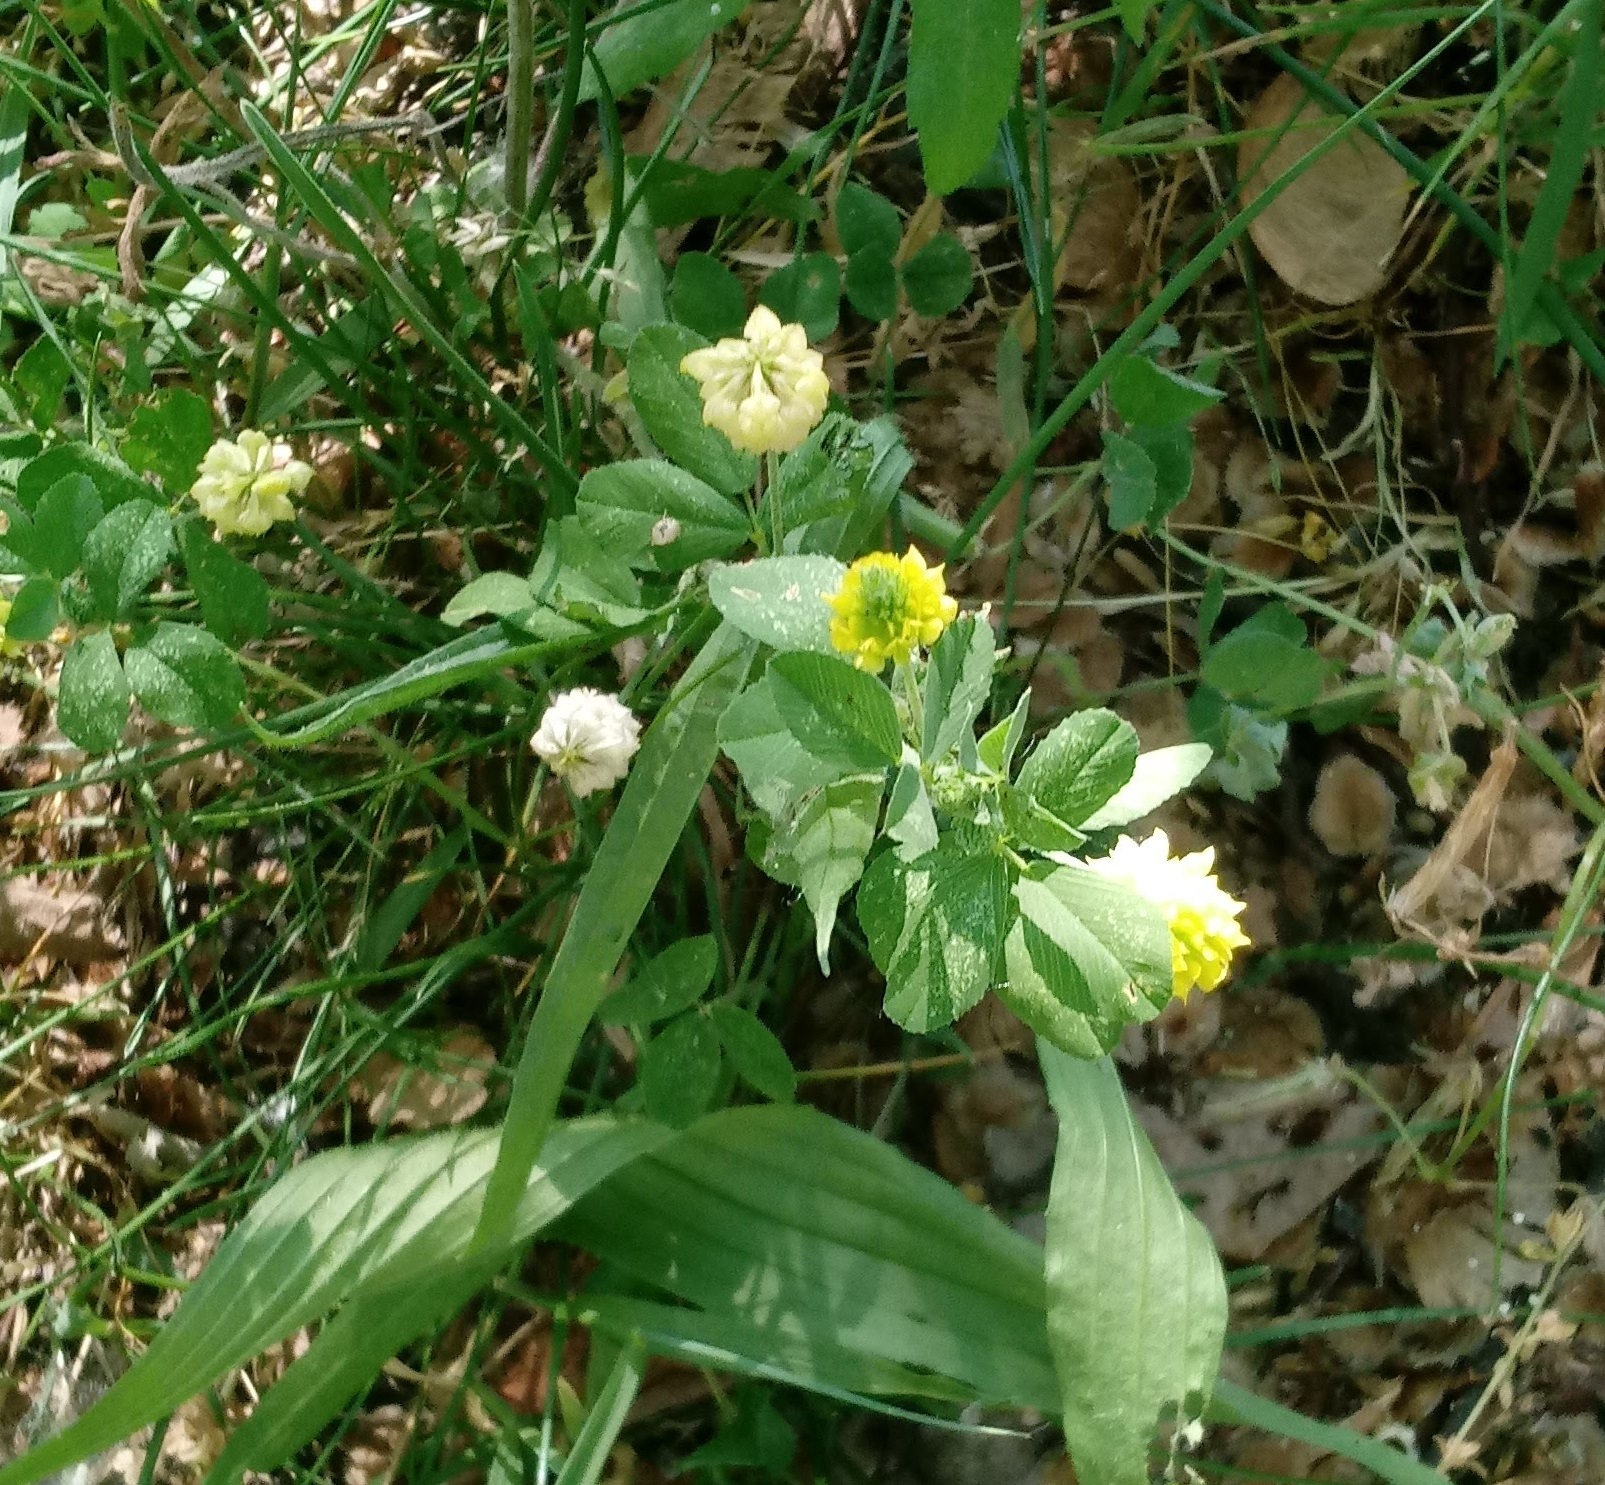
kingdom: Plantae
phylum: Tracheophyta
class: Magnoliopsida
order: Fabales
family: Fabaceae
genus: Trifolium
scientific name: Trifolium campestre
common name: Field clover
